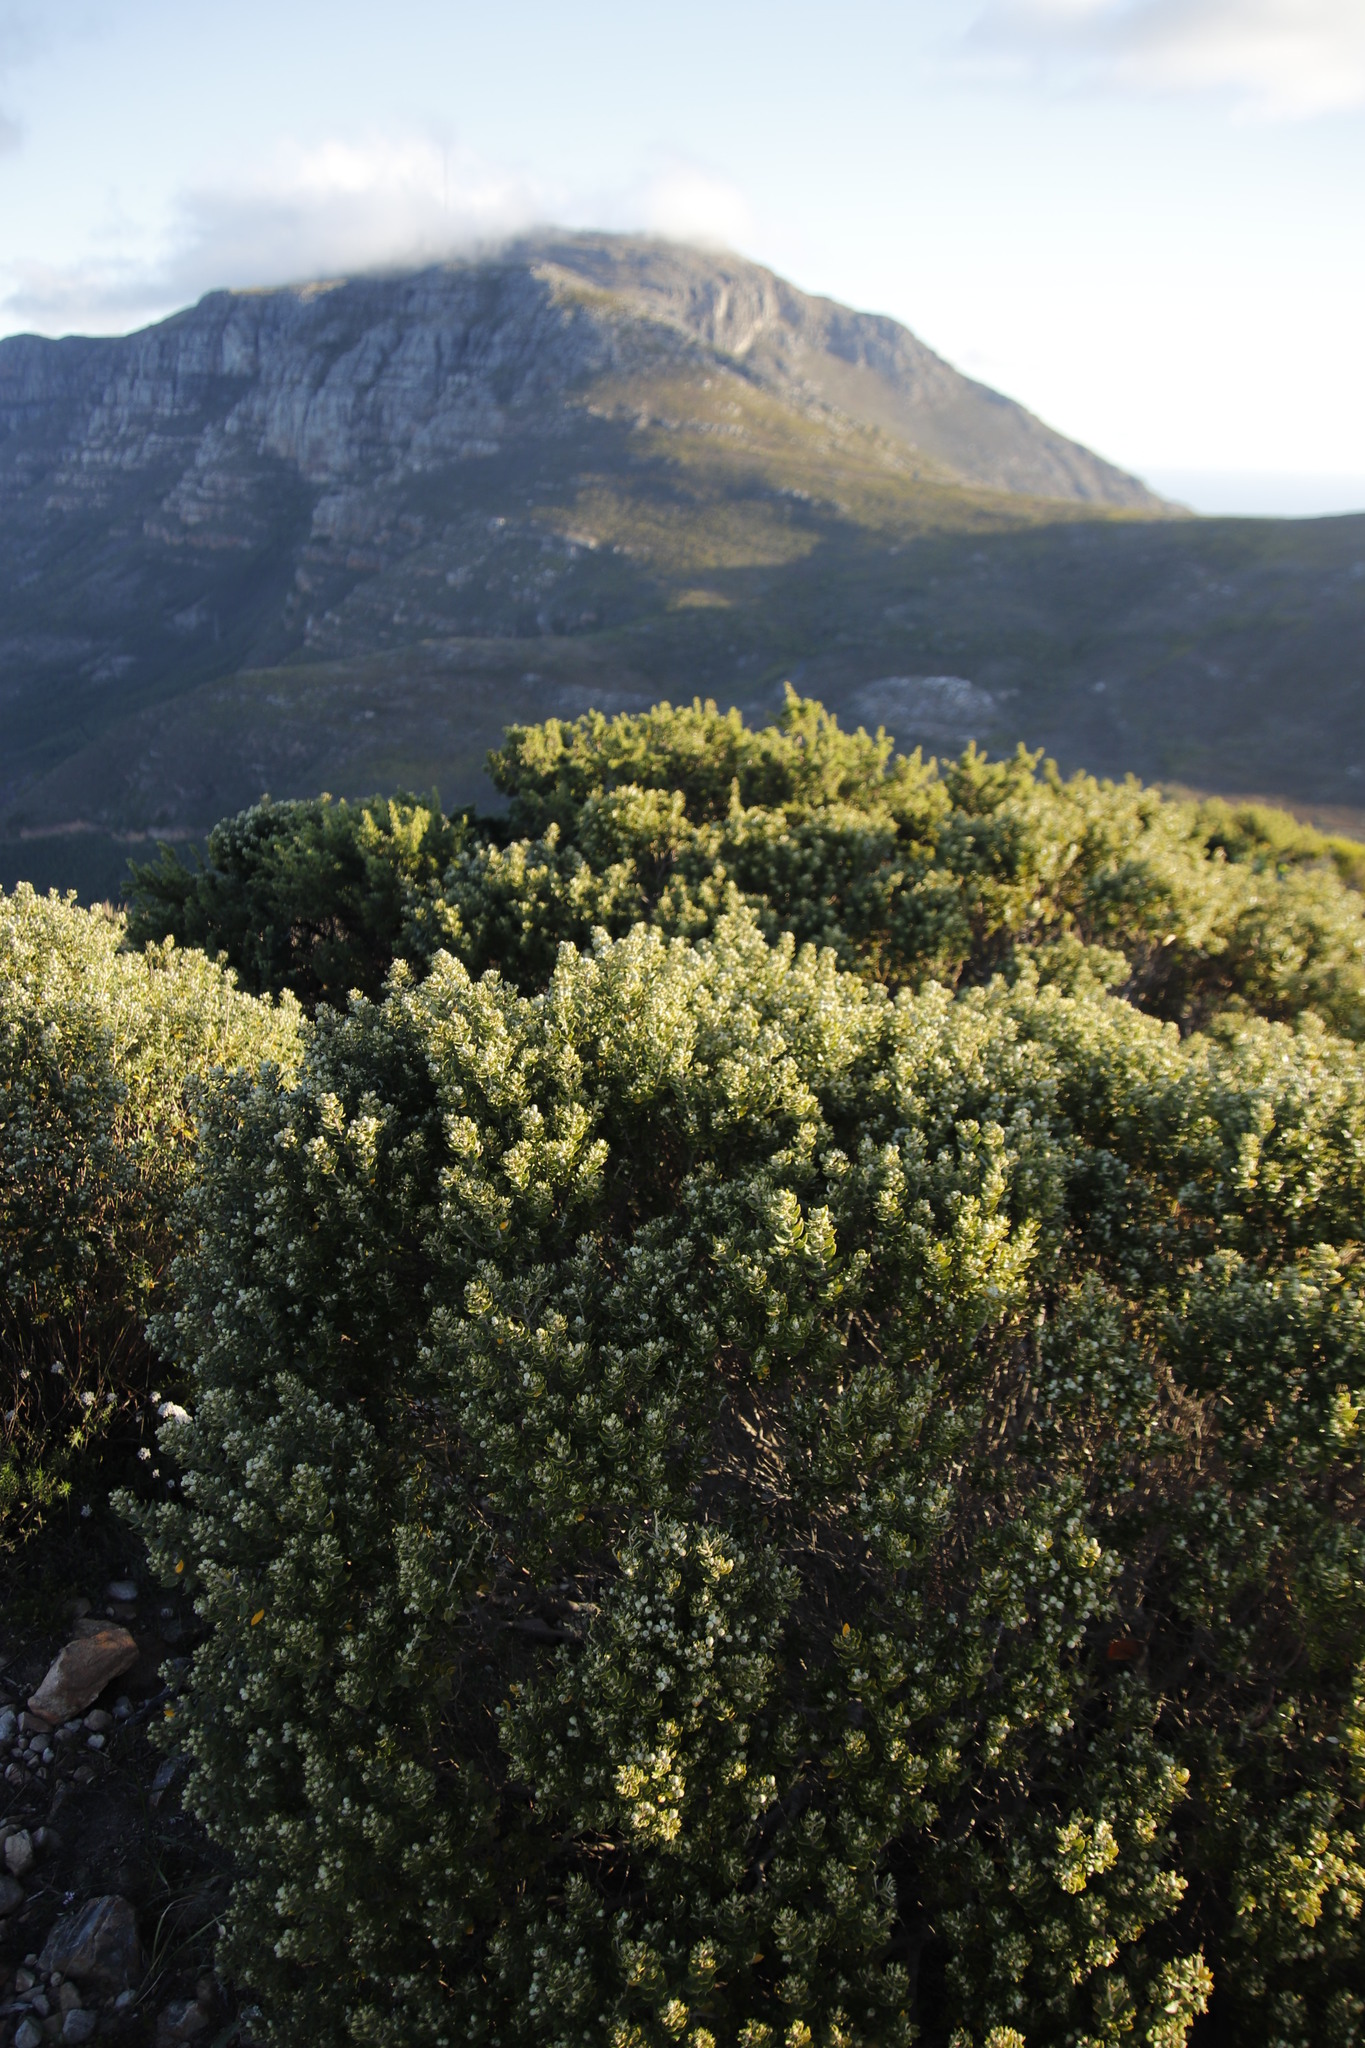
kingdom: Plantae
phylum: Tracheophyta
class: Magnoliopsida
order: Rosales
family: Rhamnaceae
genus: Phylica
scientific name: Phylica buxifolia
